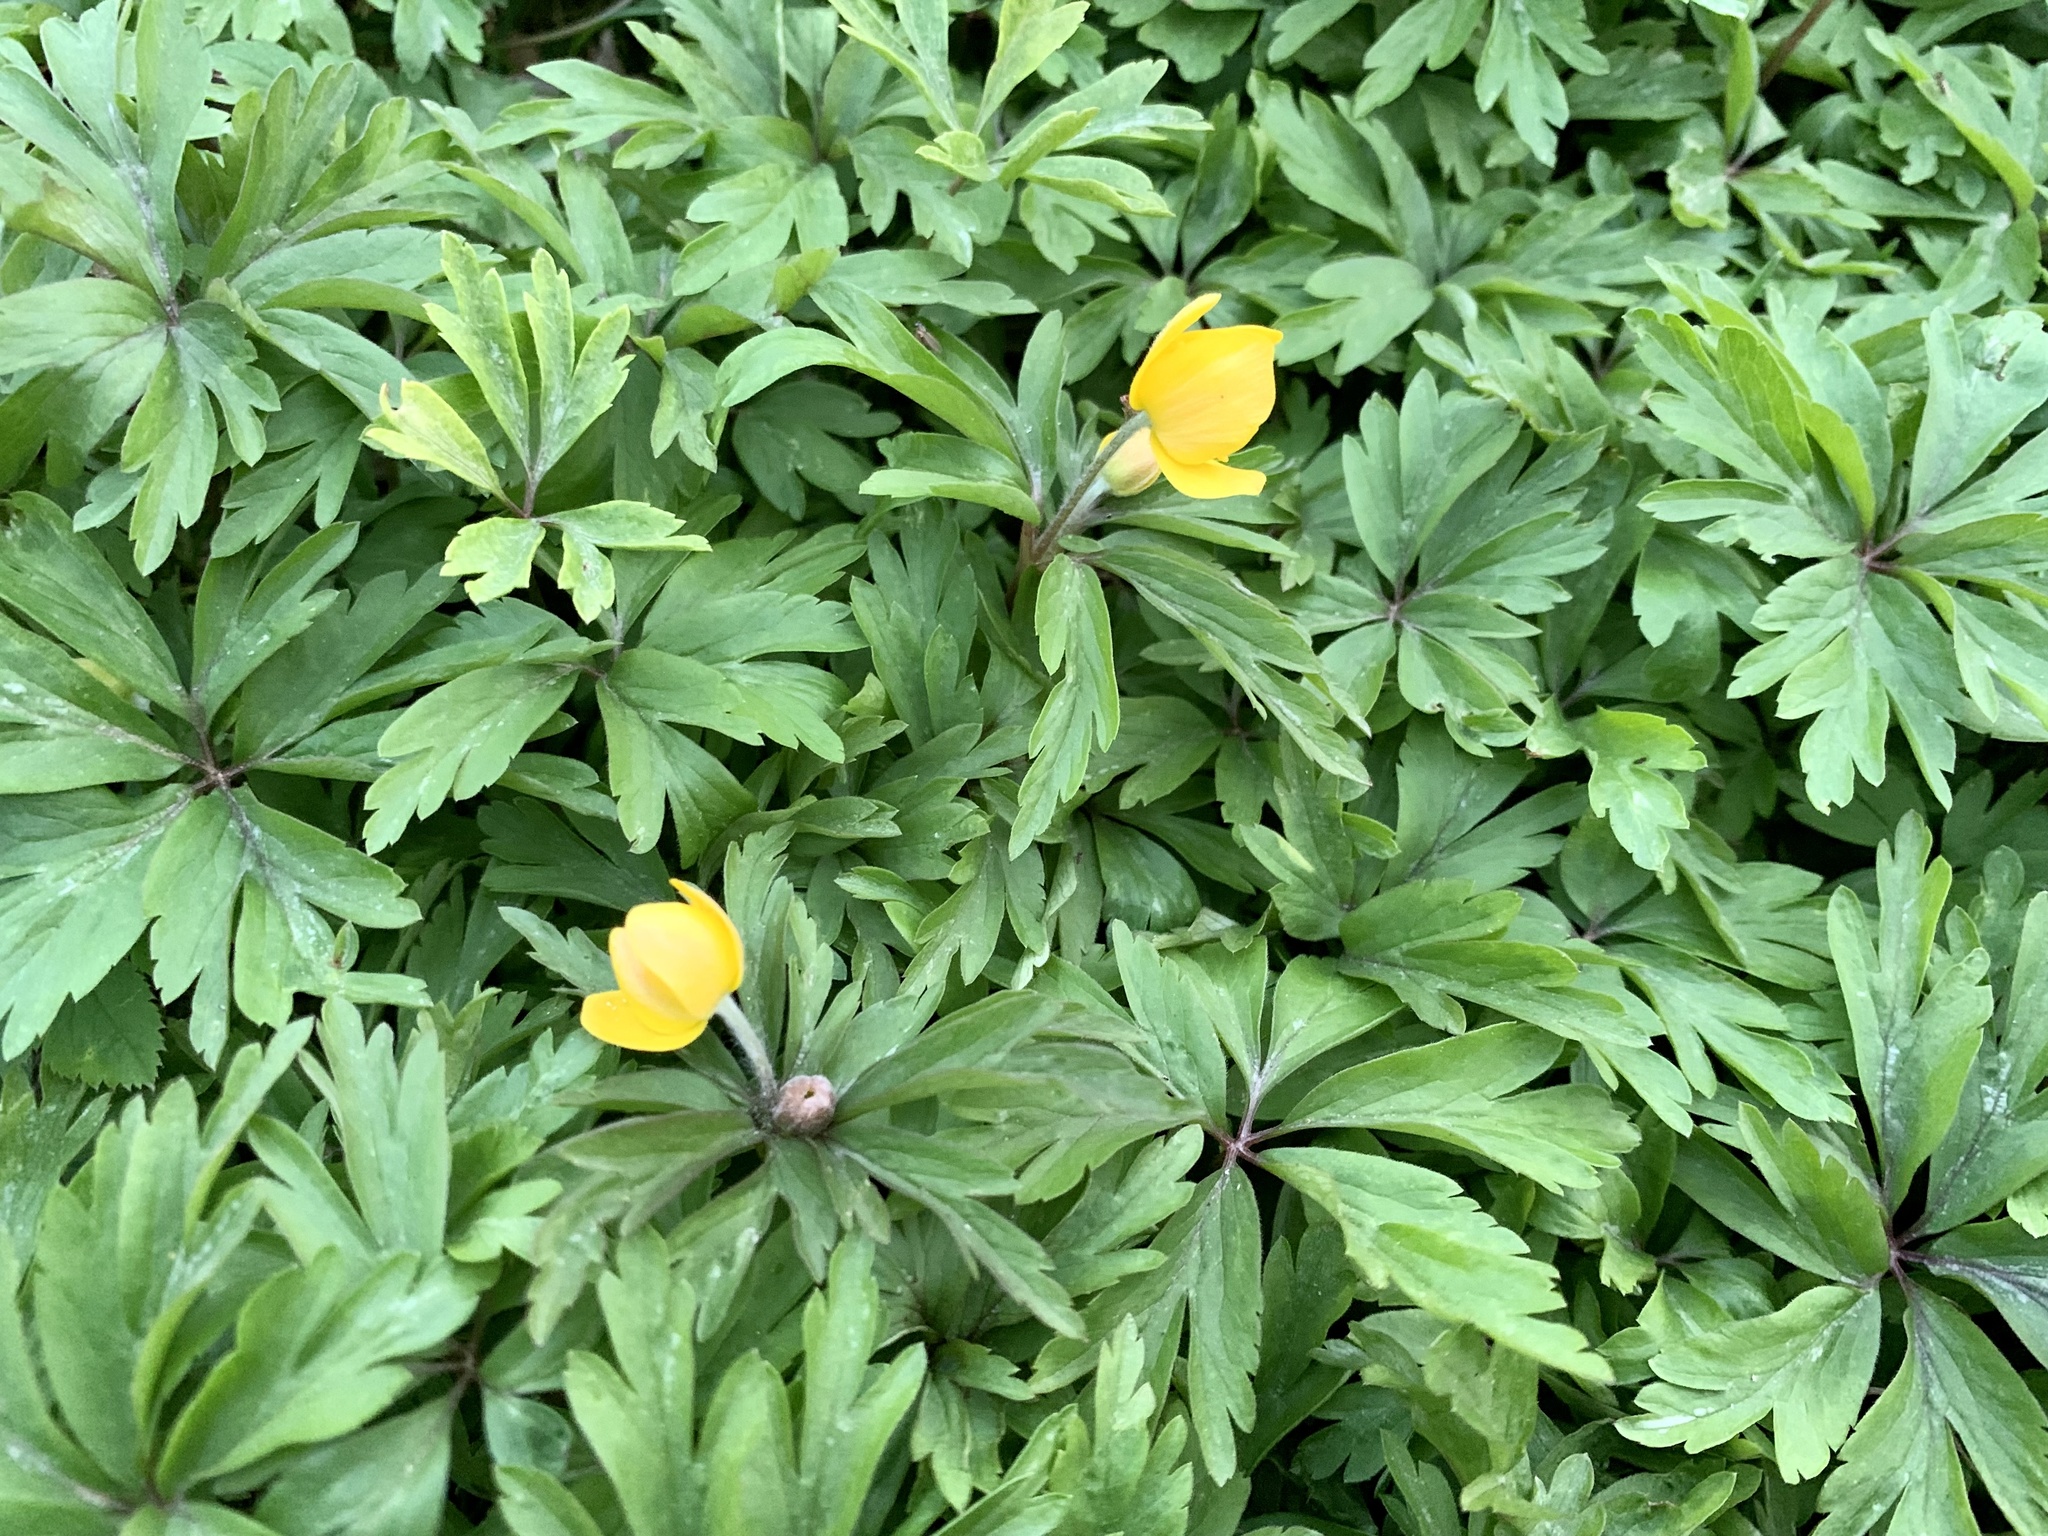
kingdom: Plantae
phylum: Tracheophyta
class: Magnoliopsida
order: Ranunculales
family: Ranunculaceae
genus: Anemone
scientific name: Anemone ranunculoides
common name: Yellow anemone
